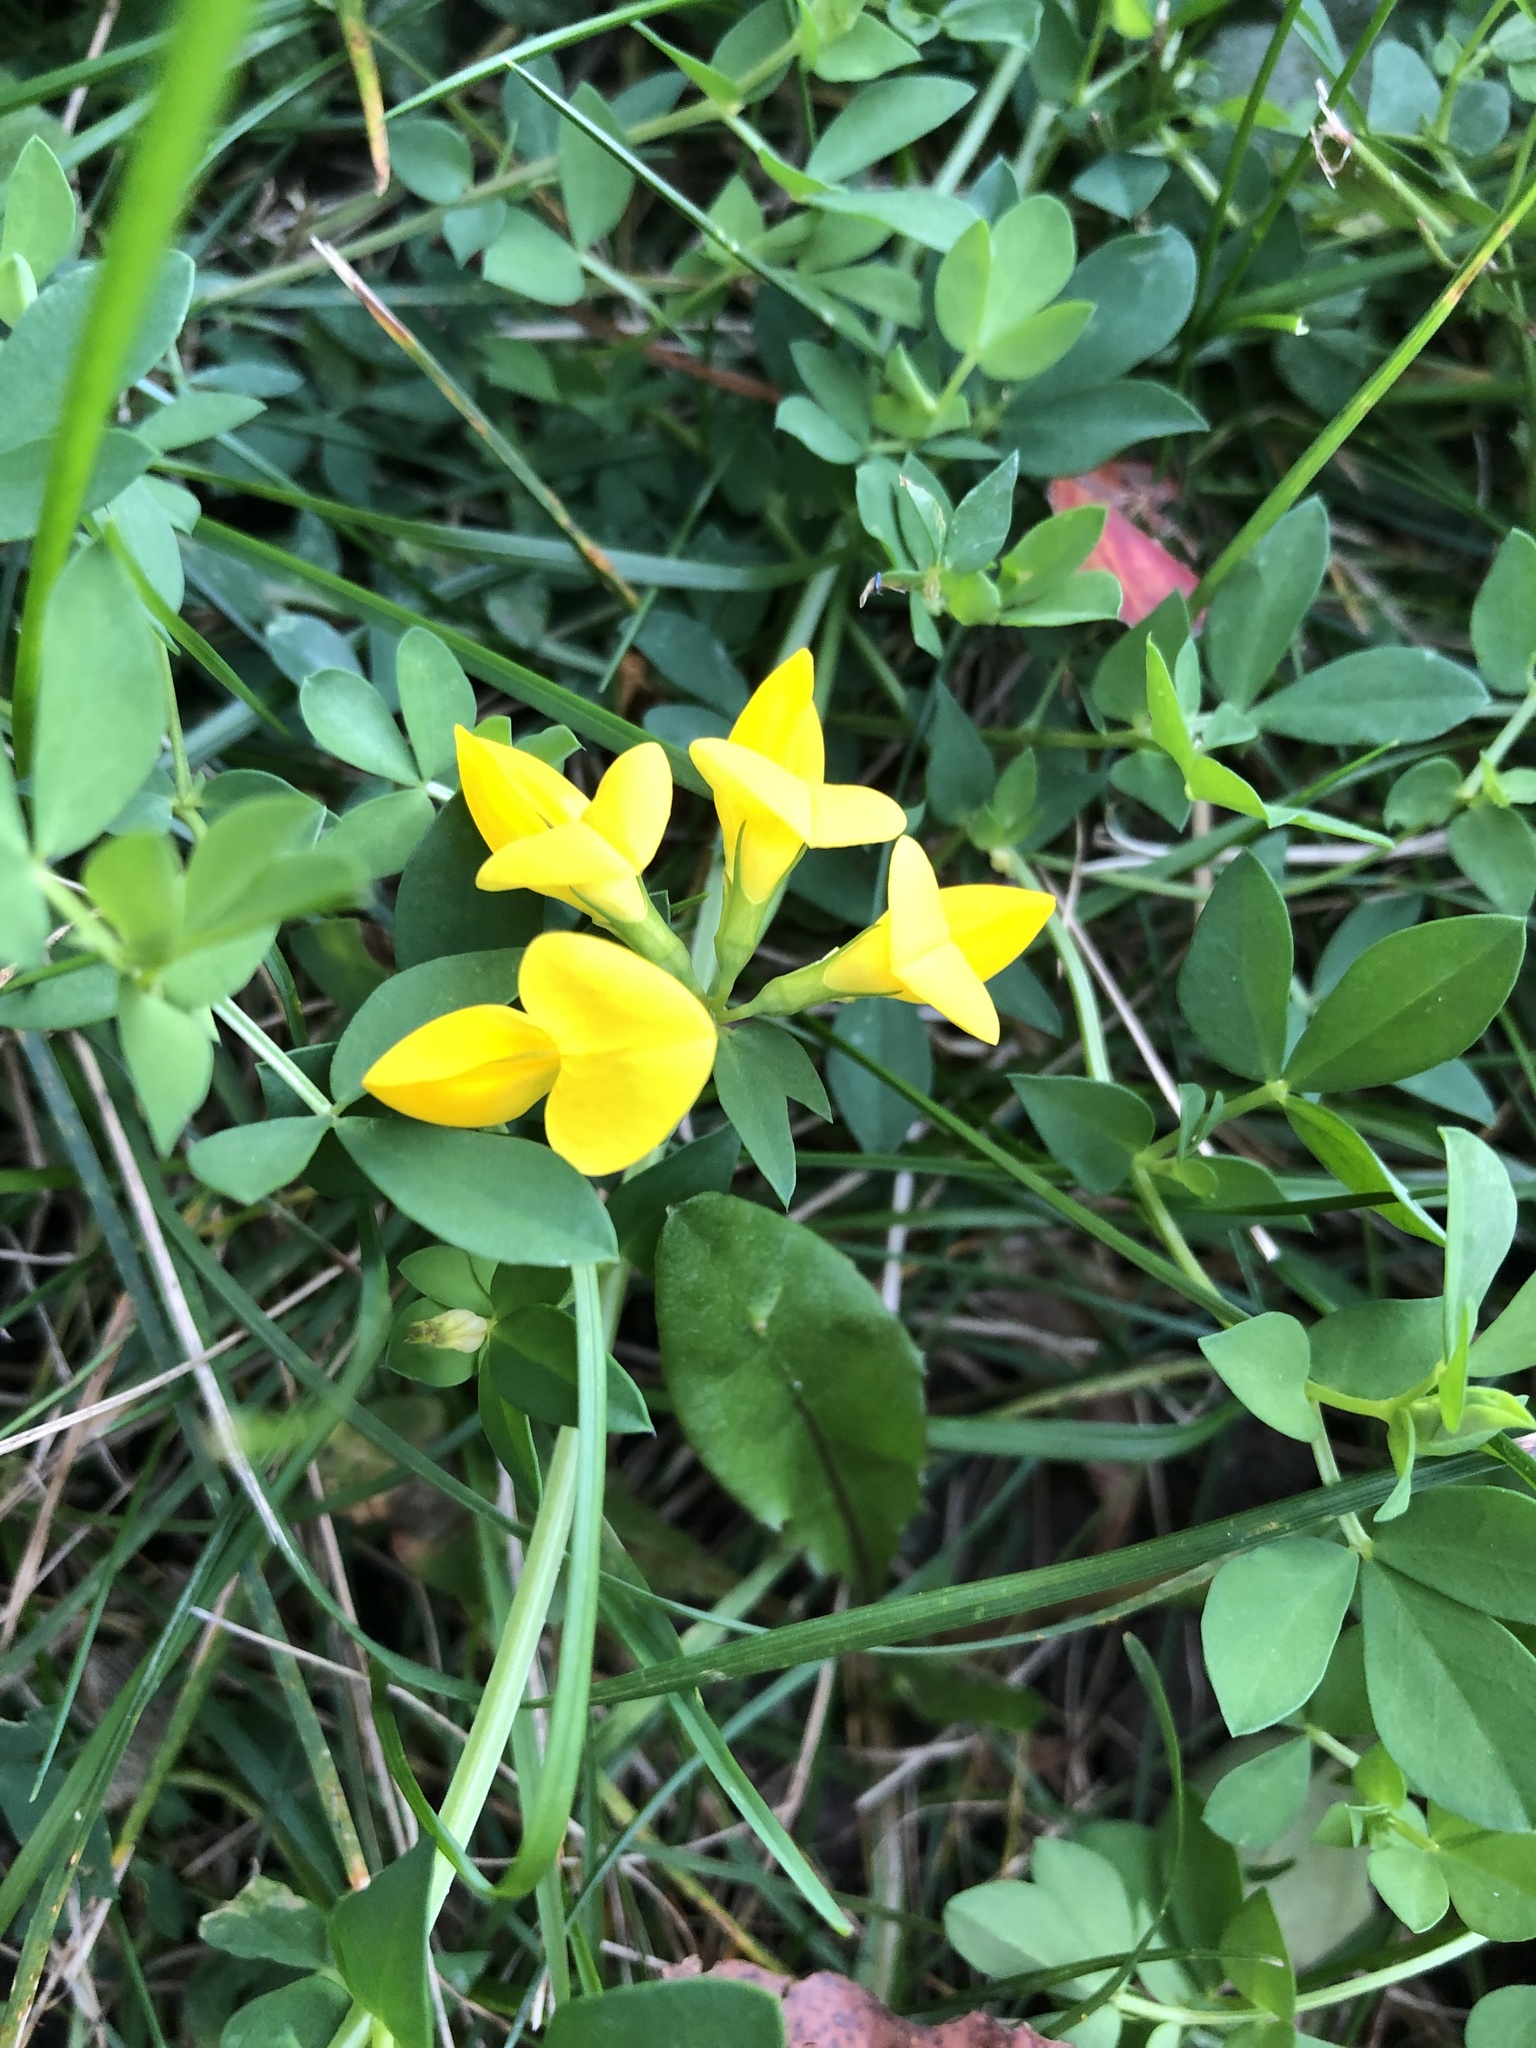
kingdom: Plantae
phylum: Tracheophyta
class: Magnoliopsida
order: Fabales
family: Fabaceae
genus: Lotus
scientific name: Lotus corniculatus
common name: Common bird's-foot-trefoil
